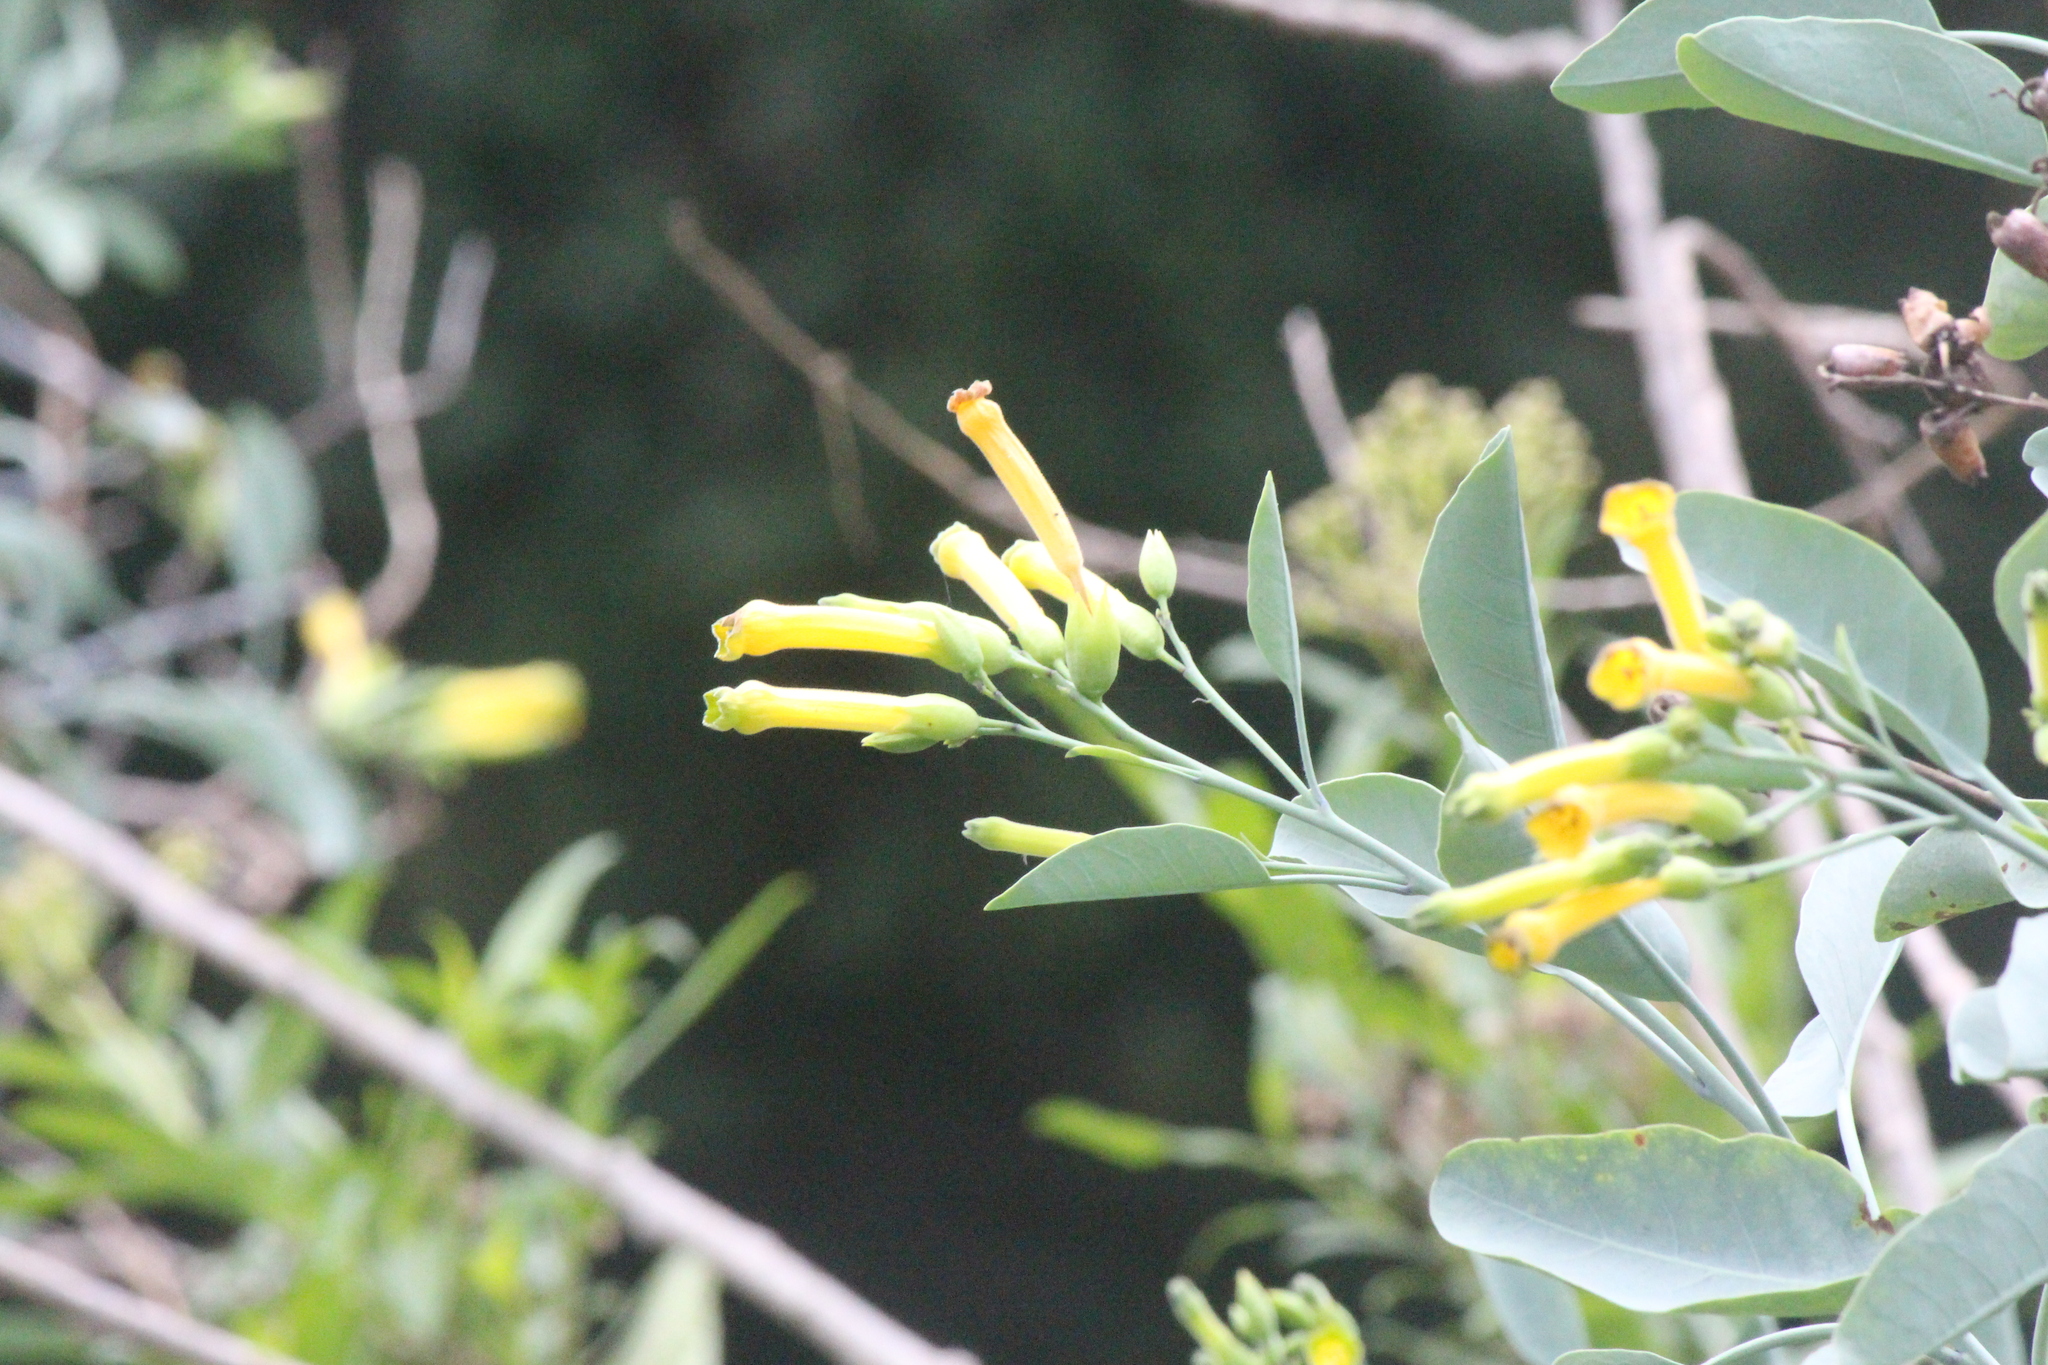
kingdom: Plantae
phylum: Tracheophyta
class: Magnoliopsida
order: Solanales
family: Solanaceae
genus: Nicotiana
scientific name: Nicotiana glauca
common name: Tree tobacco
